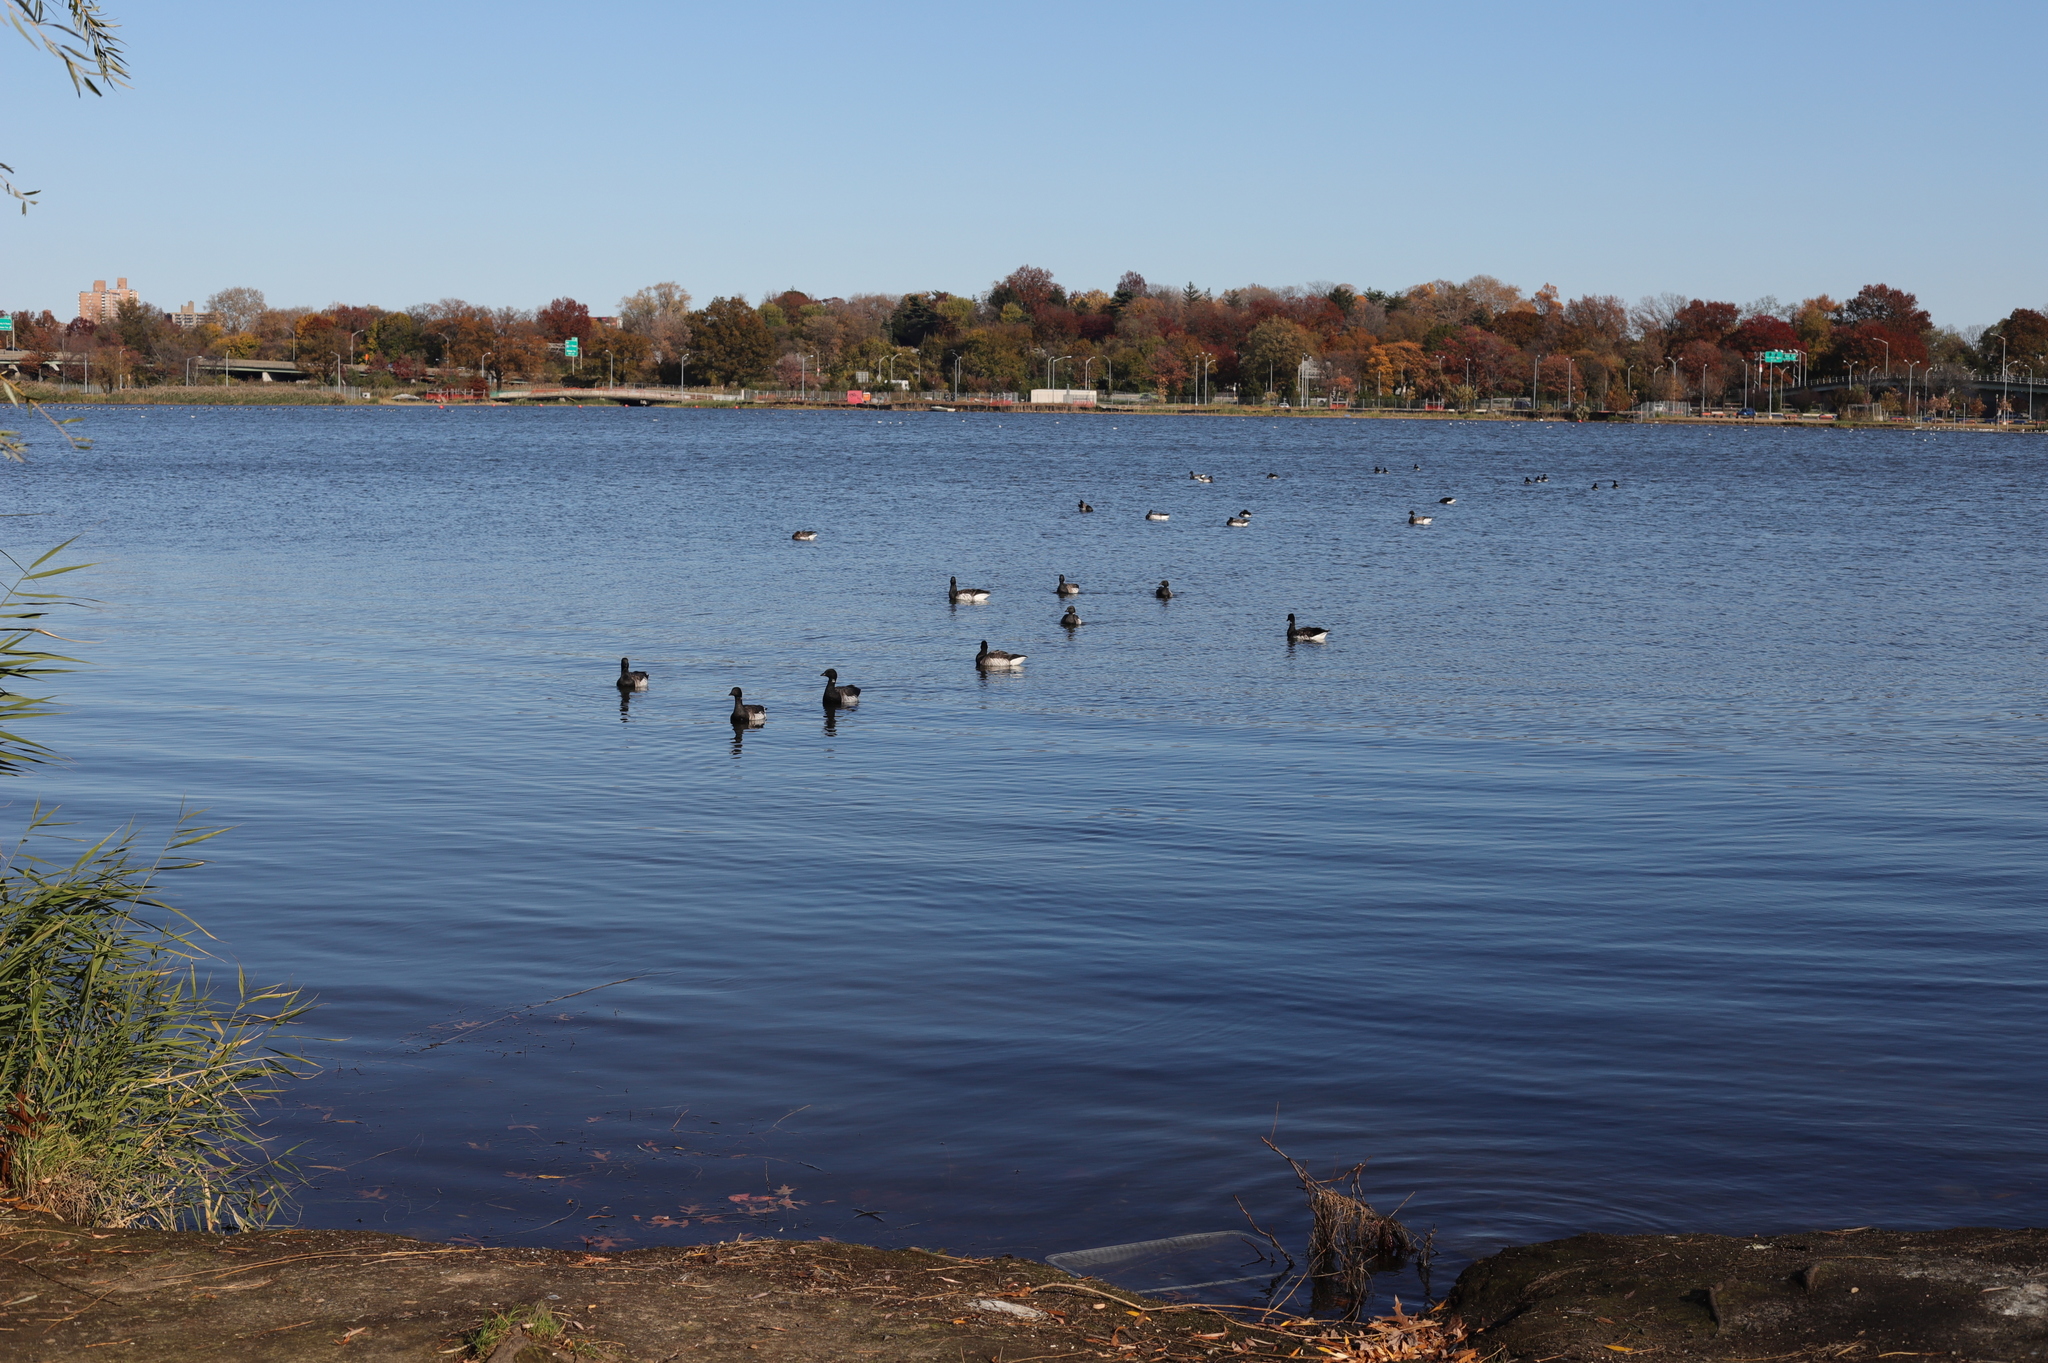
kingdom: Animalia
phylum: Chordata
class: Aves
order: Anseriformes
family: Anatidae
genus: Branta
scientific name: Branta bernicla
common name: Brant goose
